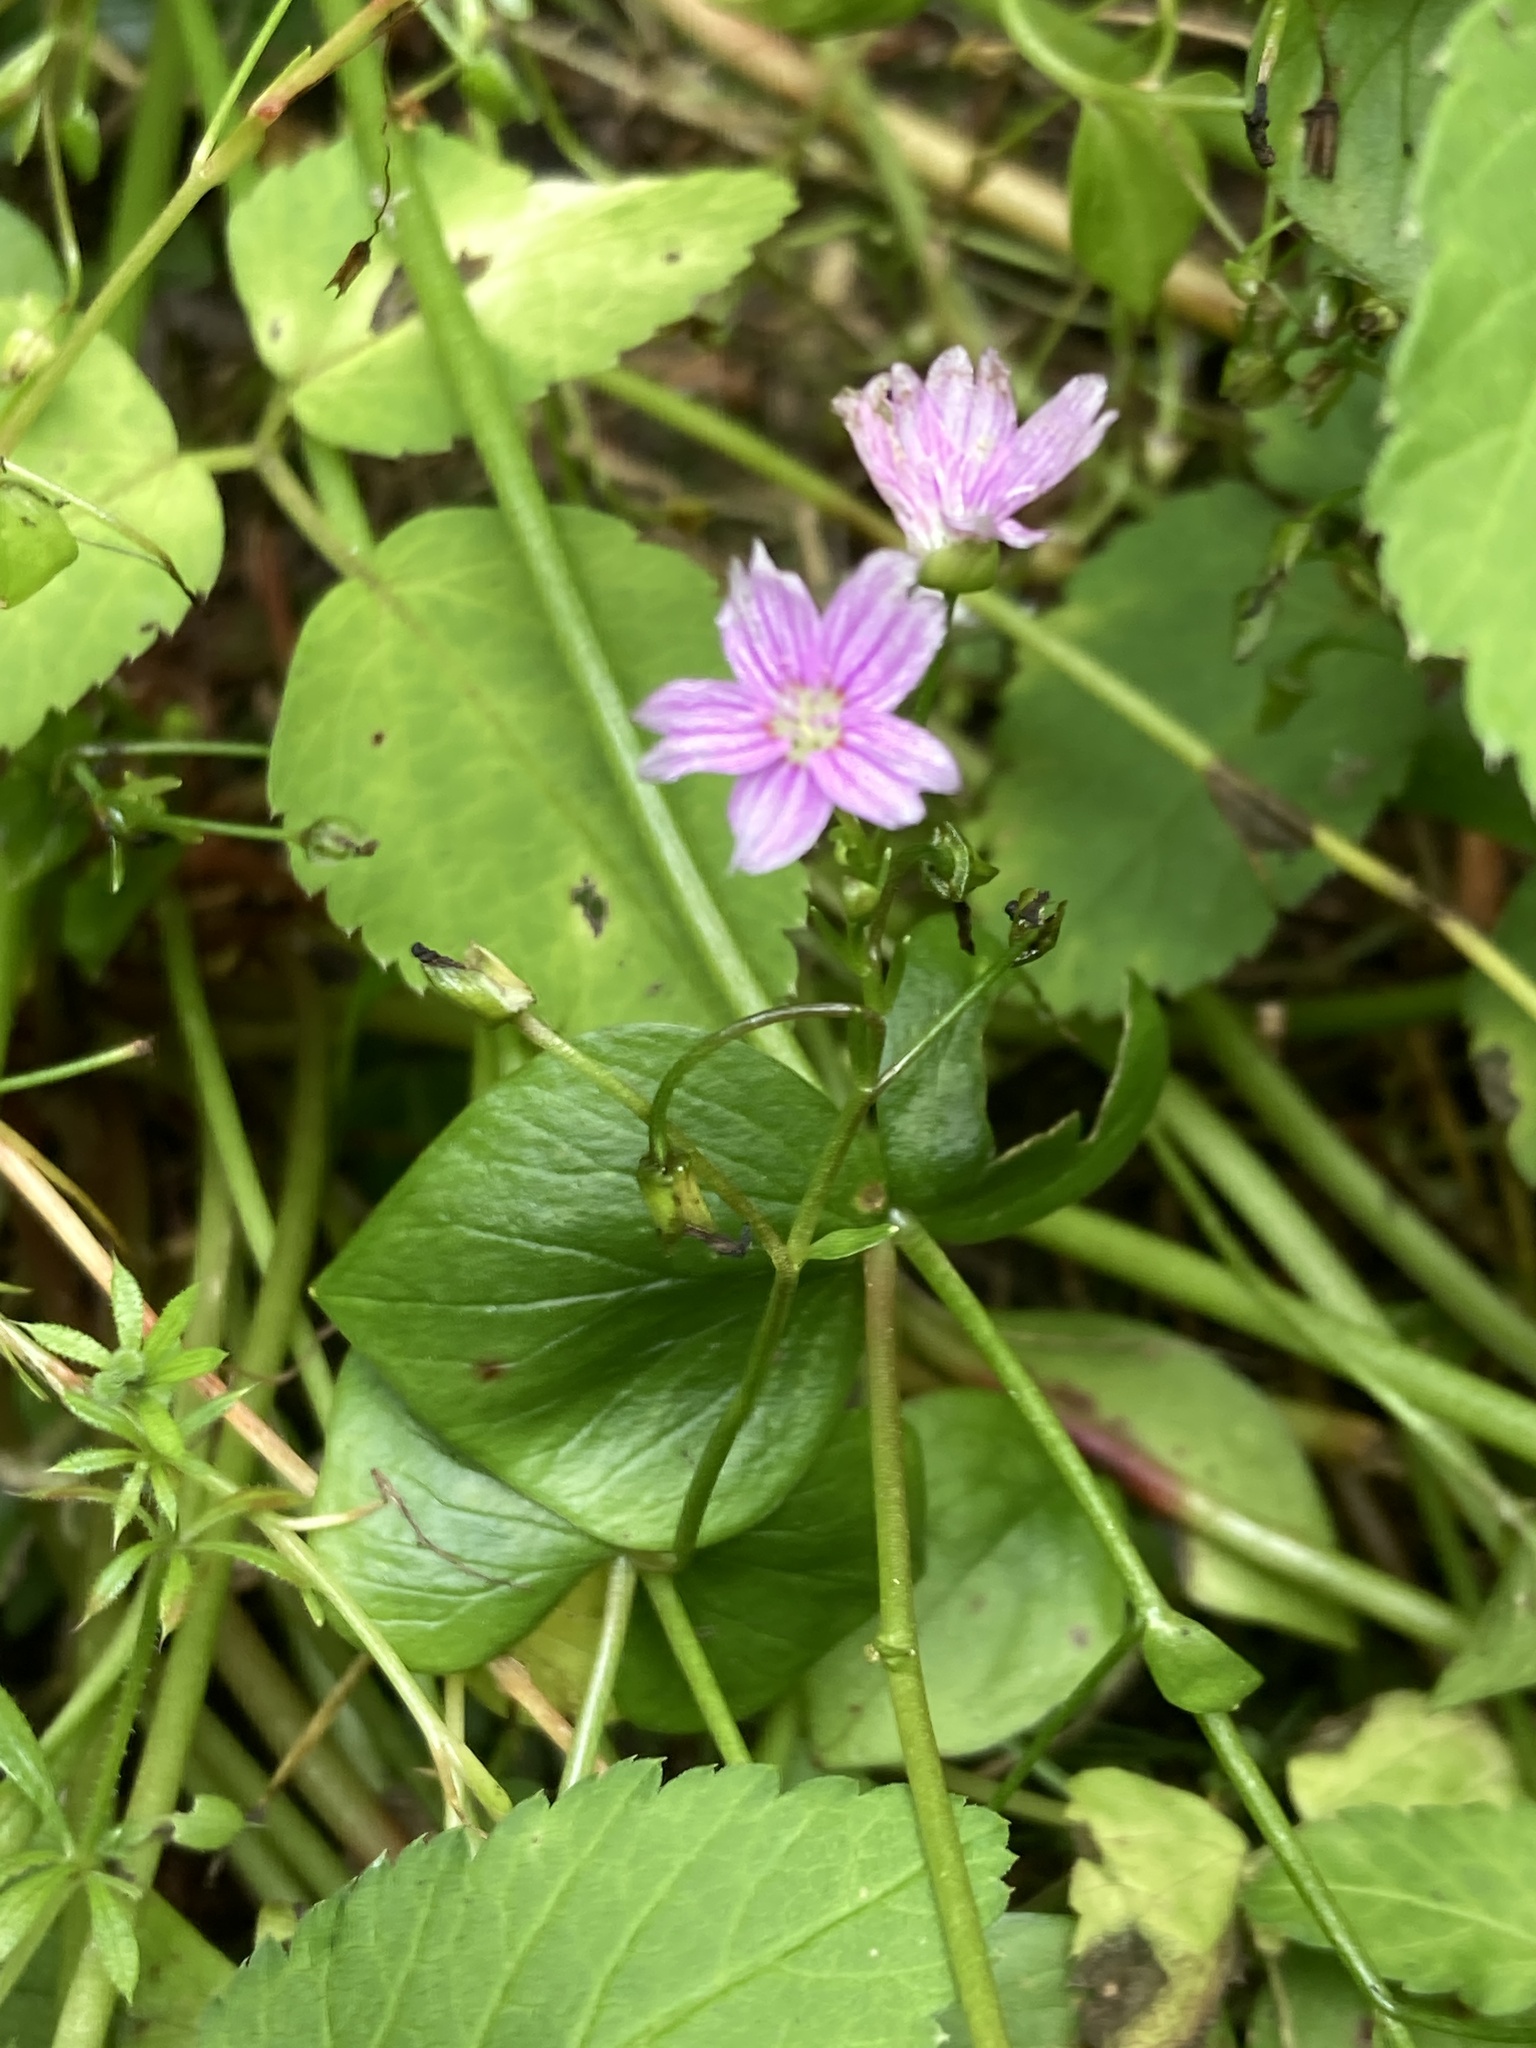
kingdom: Plantae
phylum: Tracheophyta
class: Magnoliopsida
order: Caryophyllales
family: Montiaceae
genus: Claytonia
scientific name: Claytonia sibirica
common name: Pink purslane
